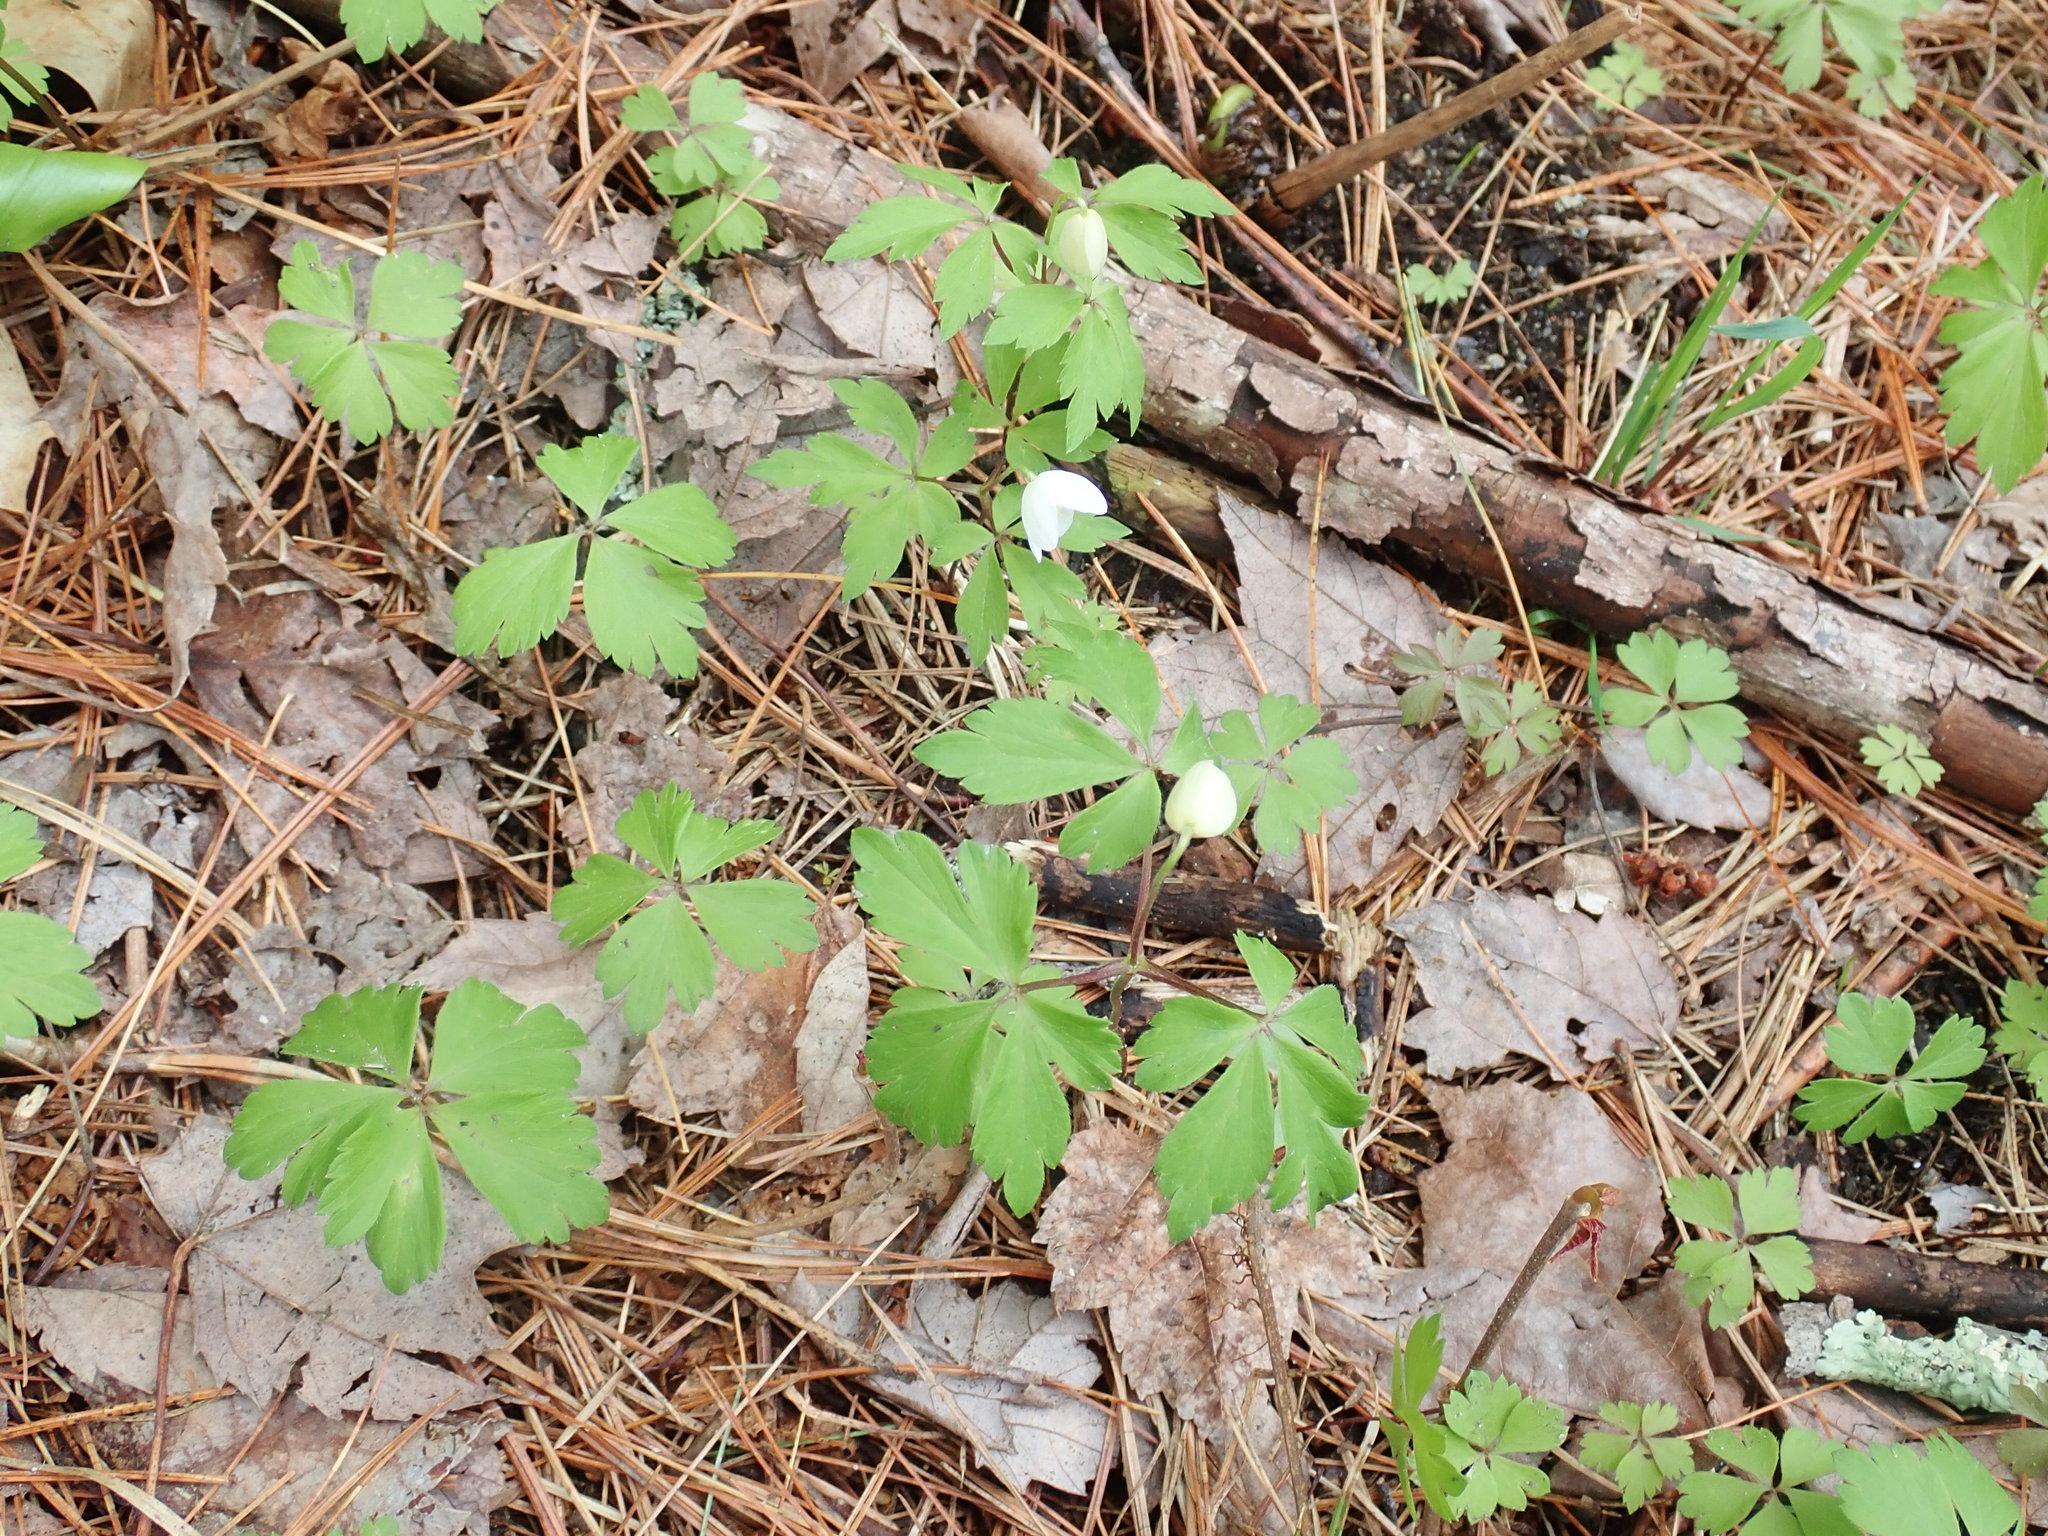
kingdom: Plantae
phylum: Tracheophyta
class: Magnoliopsida
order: Ranunculales
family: Ranunculaceae
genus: Anemone
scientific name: Anemone quinquefolia
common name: Wood anemone
